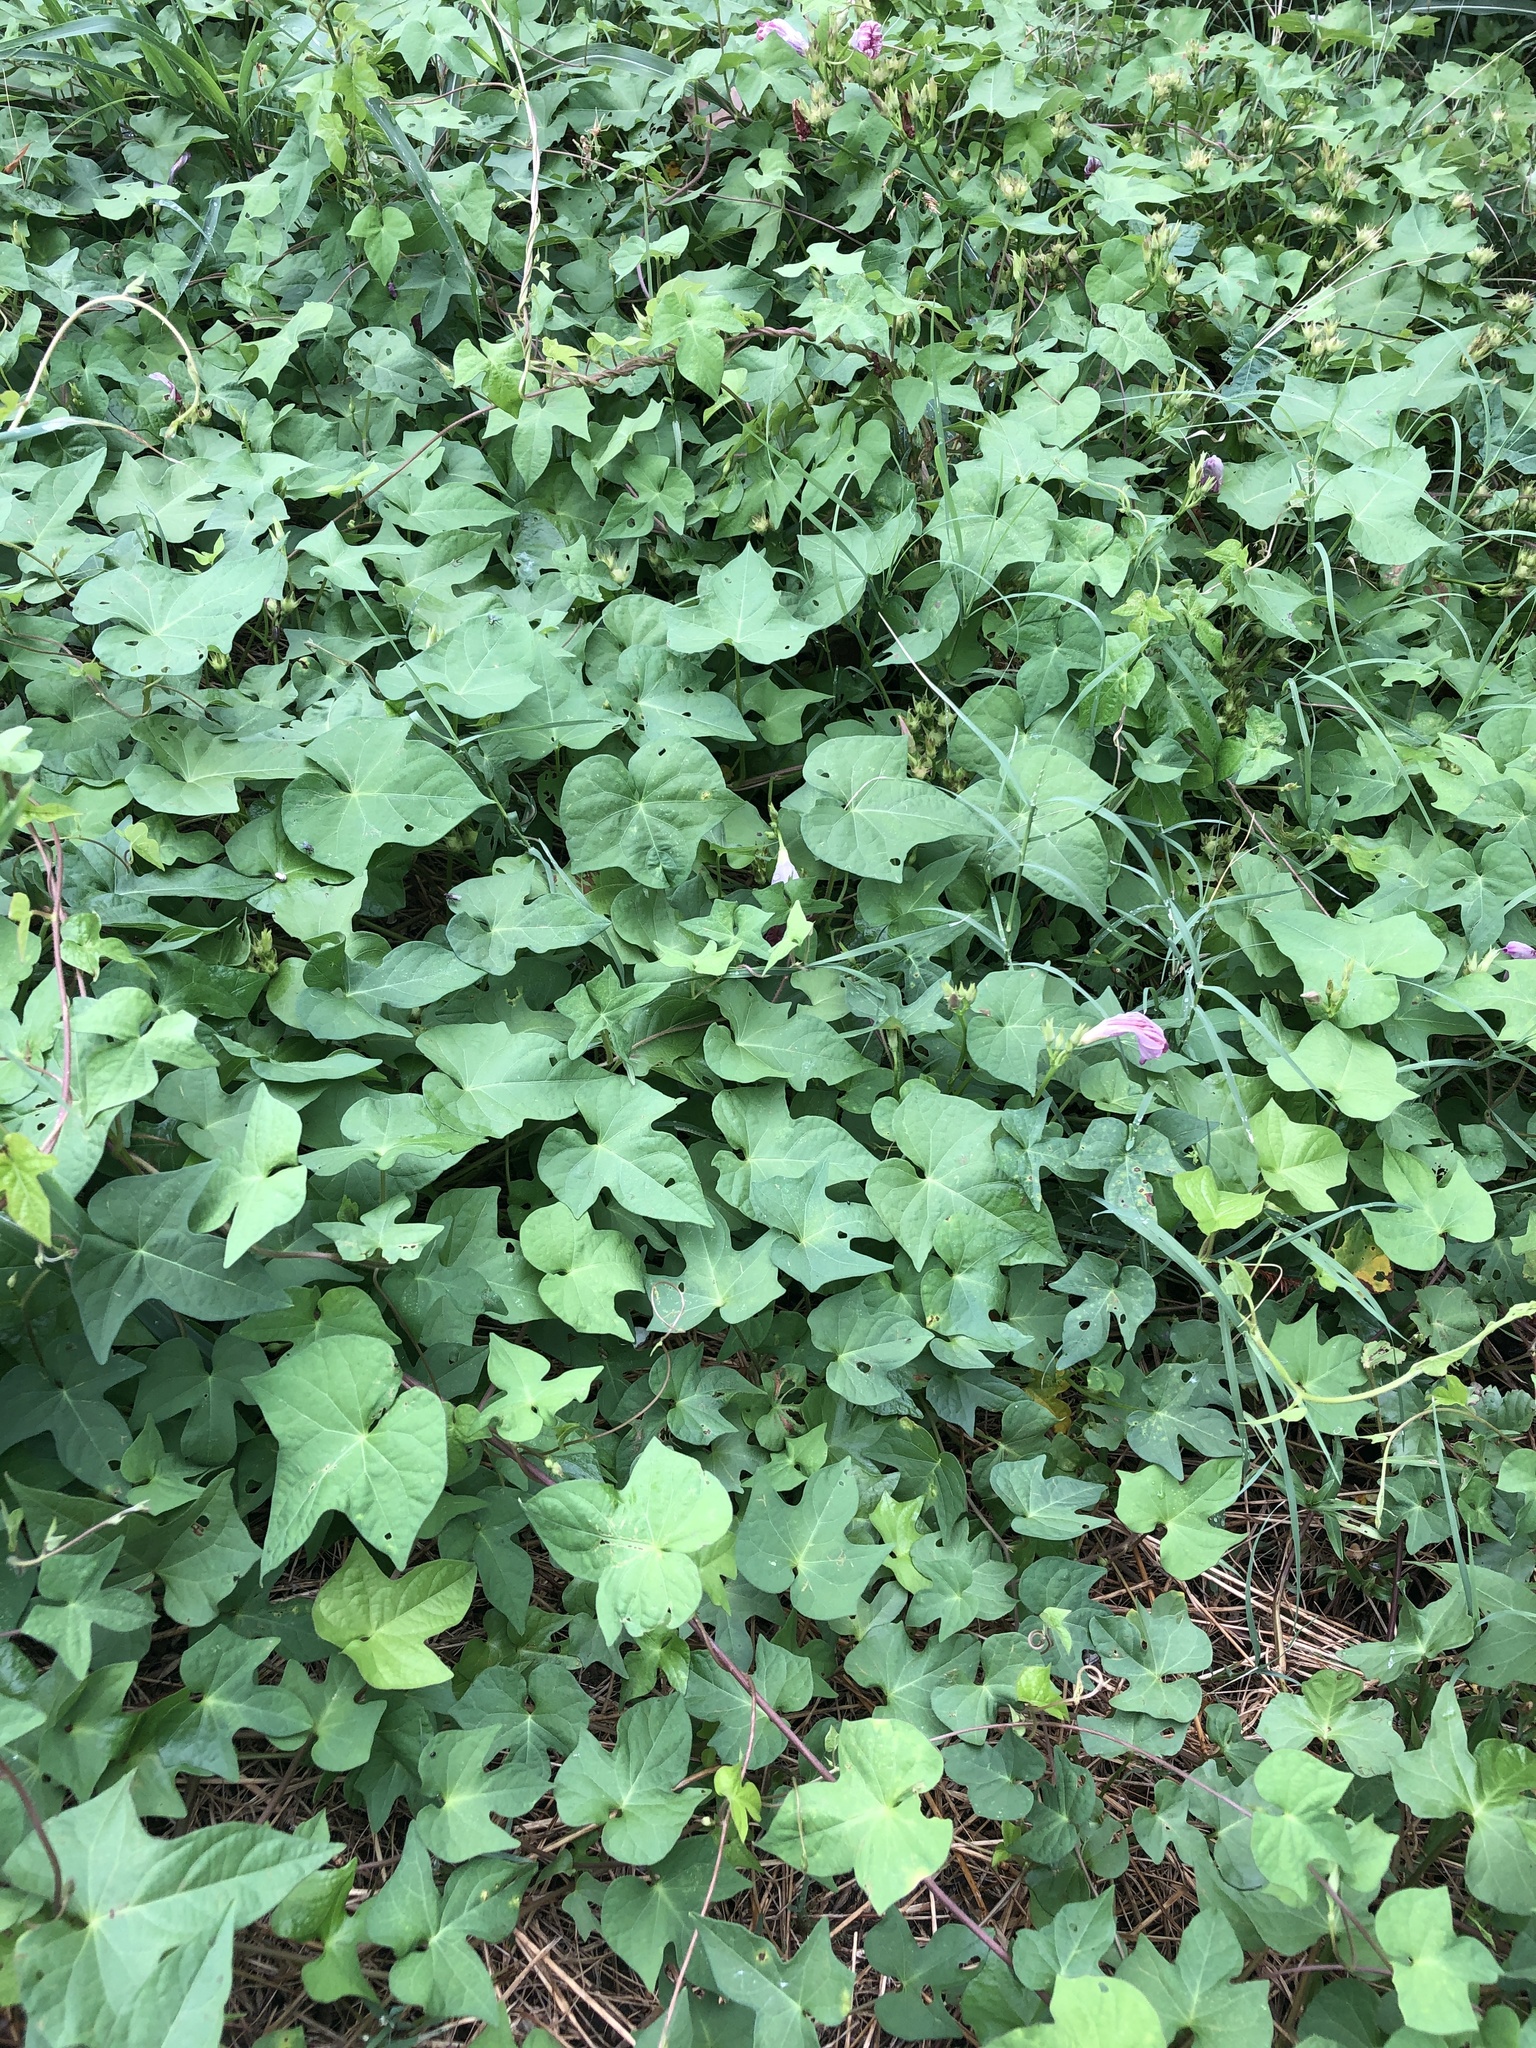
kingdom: Plantae
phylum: Tracheophyta
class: Magnoliopsida
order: Solanales
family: Convolvulaceae
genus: Ipomoea
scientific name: Ipomoea cordatotriloba
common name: Cotton morning glory
